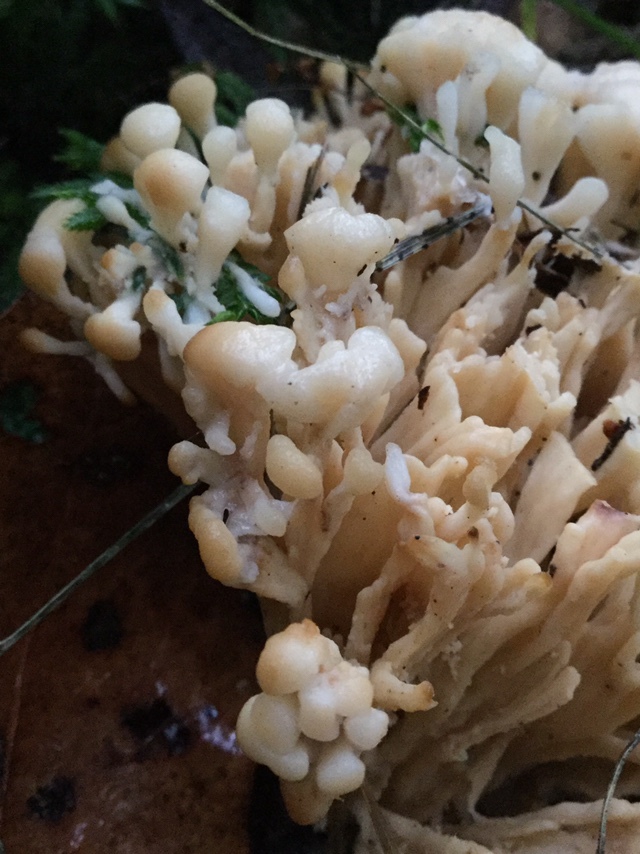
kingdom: Fungi
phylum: Basidiomycota
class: Agaricomycetes
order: Sebacinales
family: Sebacinaceae
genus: Sebacina
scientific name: Sebacina schweinitzii
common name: Jellied false coral fungus
